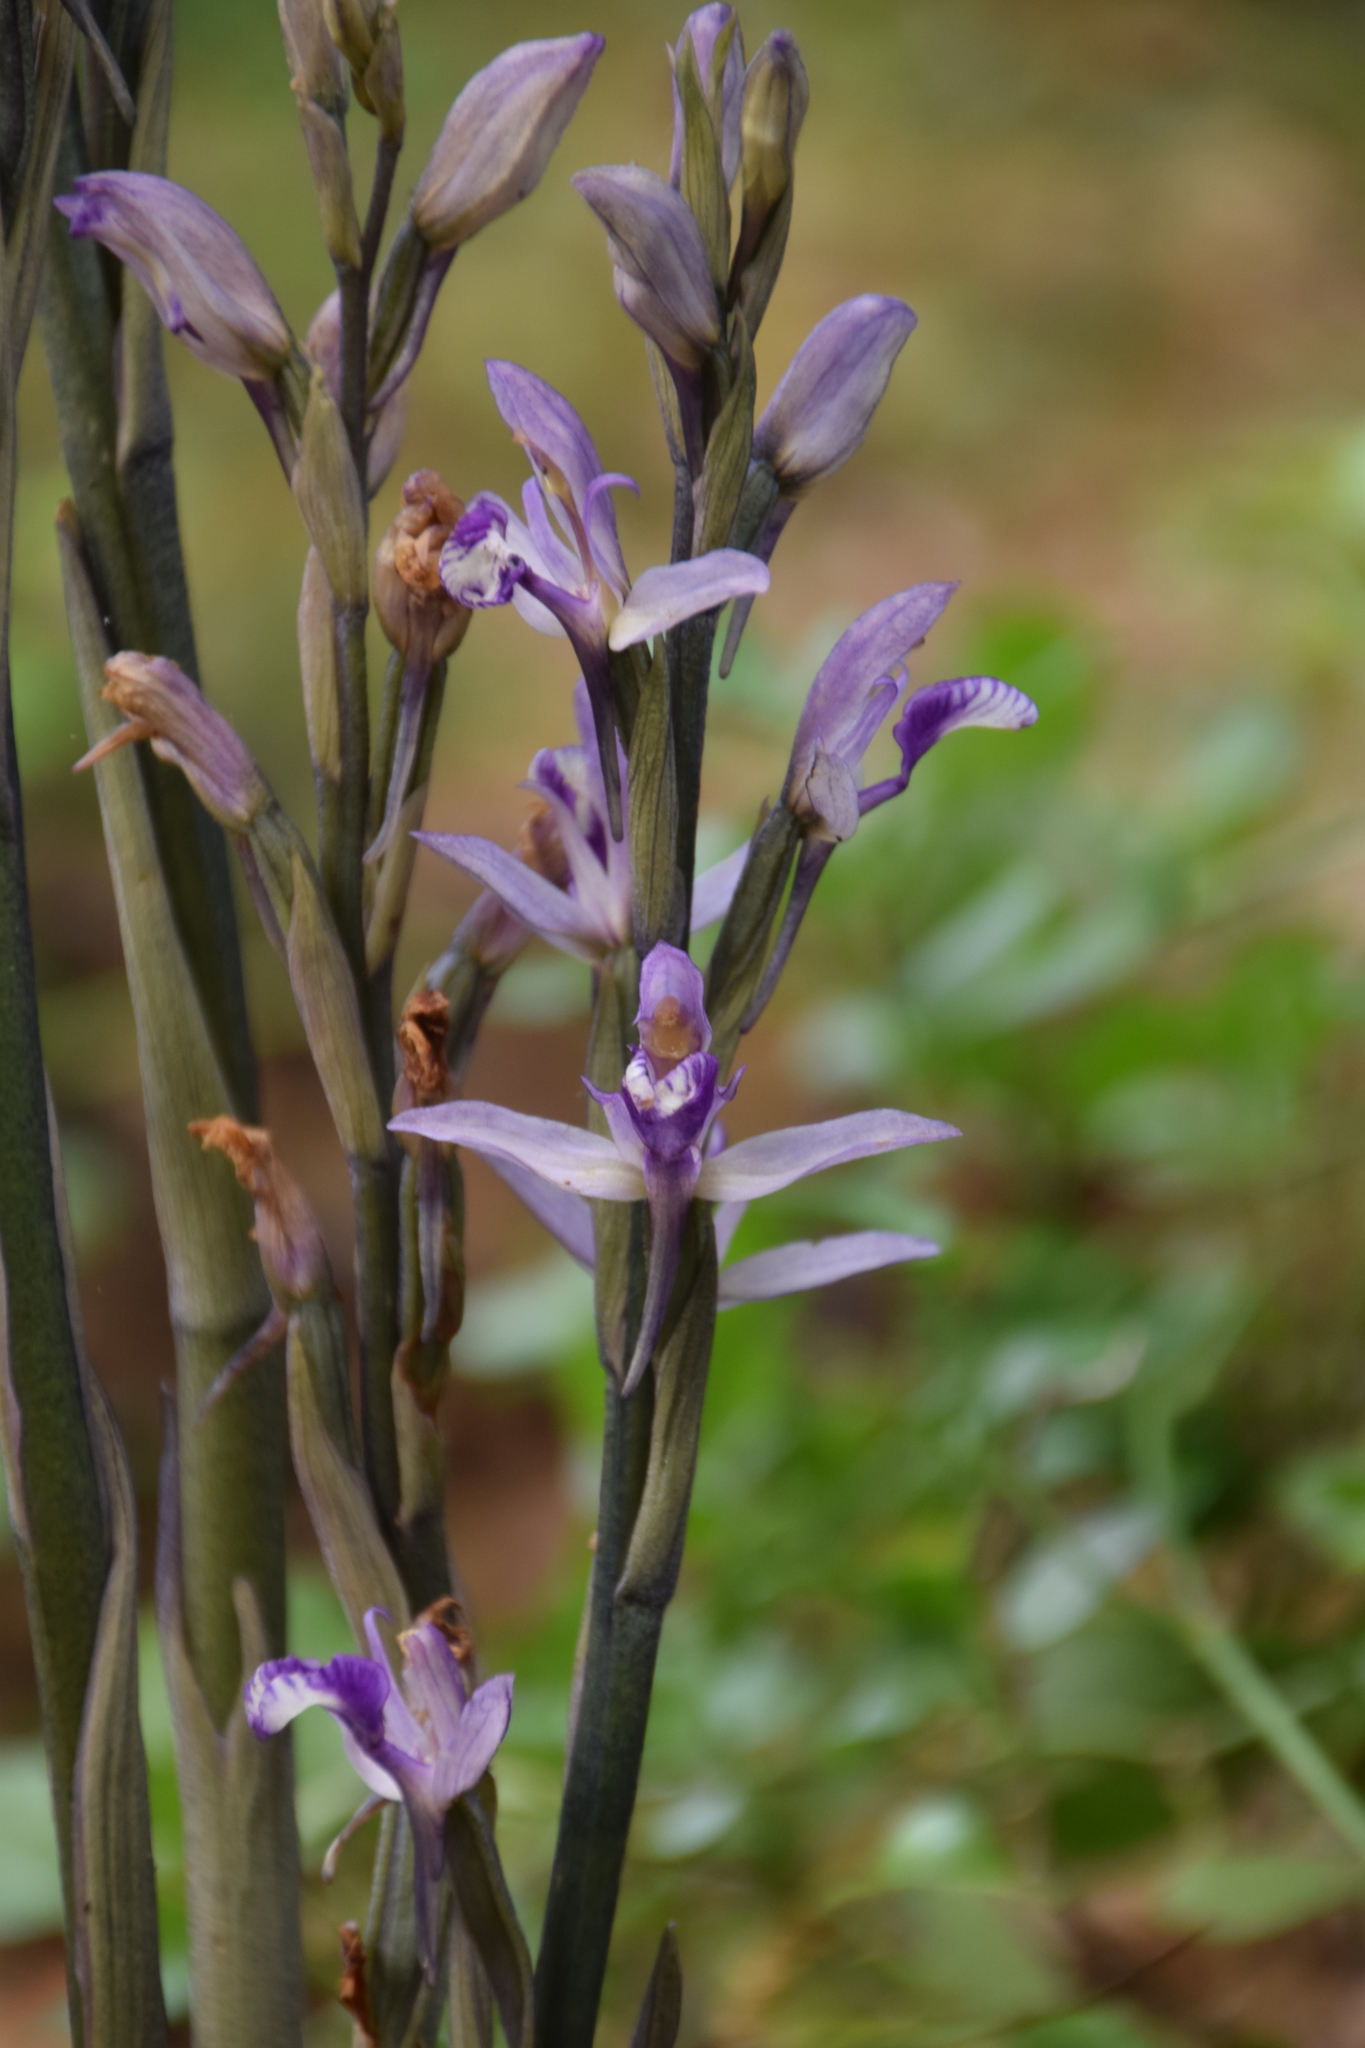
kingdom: Plantae
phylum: Tracheophyta
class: Liliopsida
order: Asparagales
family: Orchidaceae
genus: Limodorum
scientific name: Limodorum abortivum
